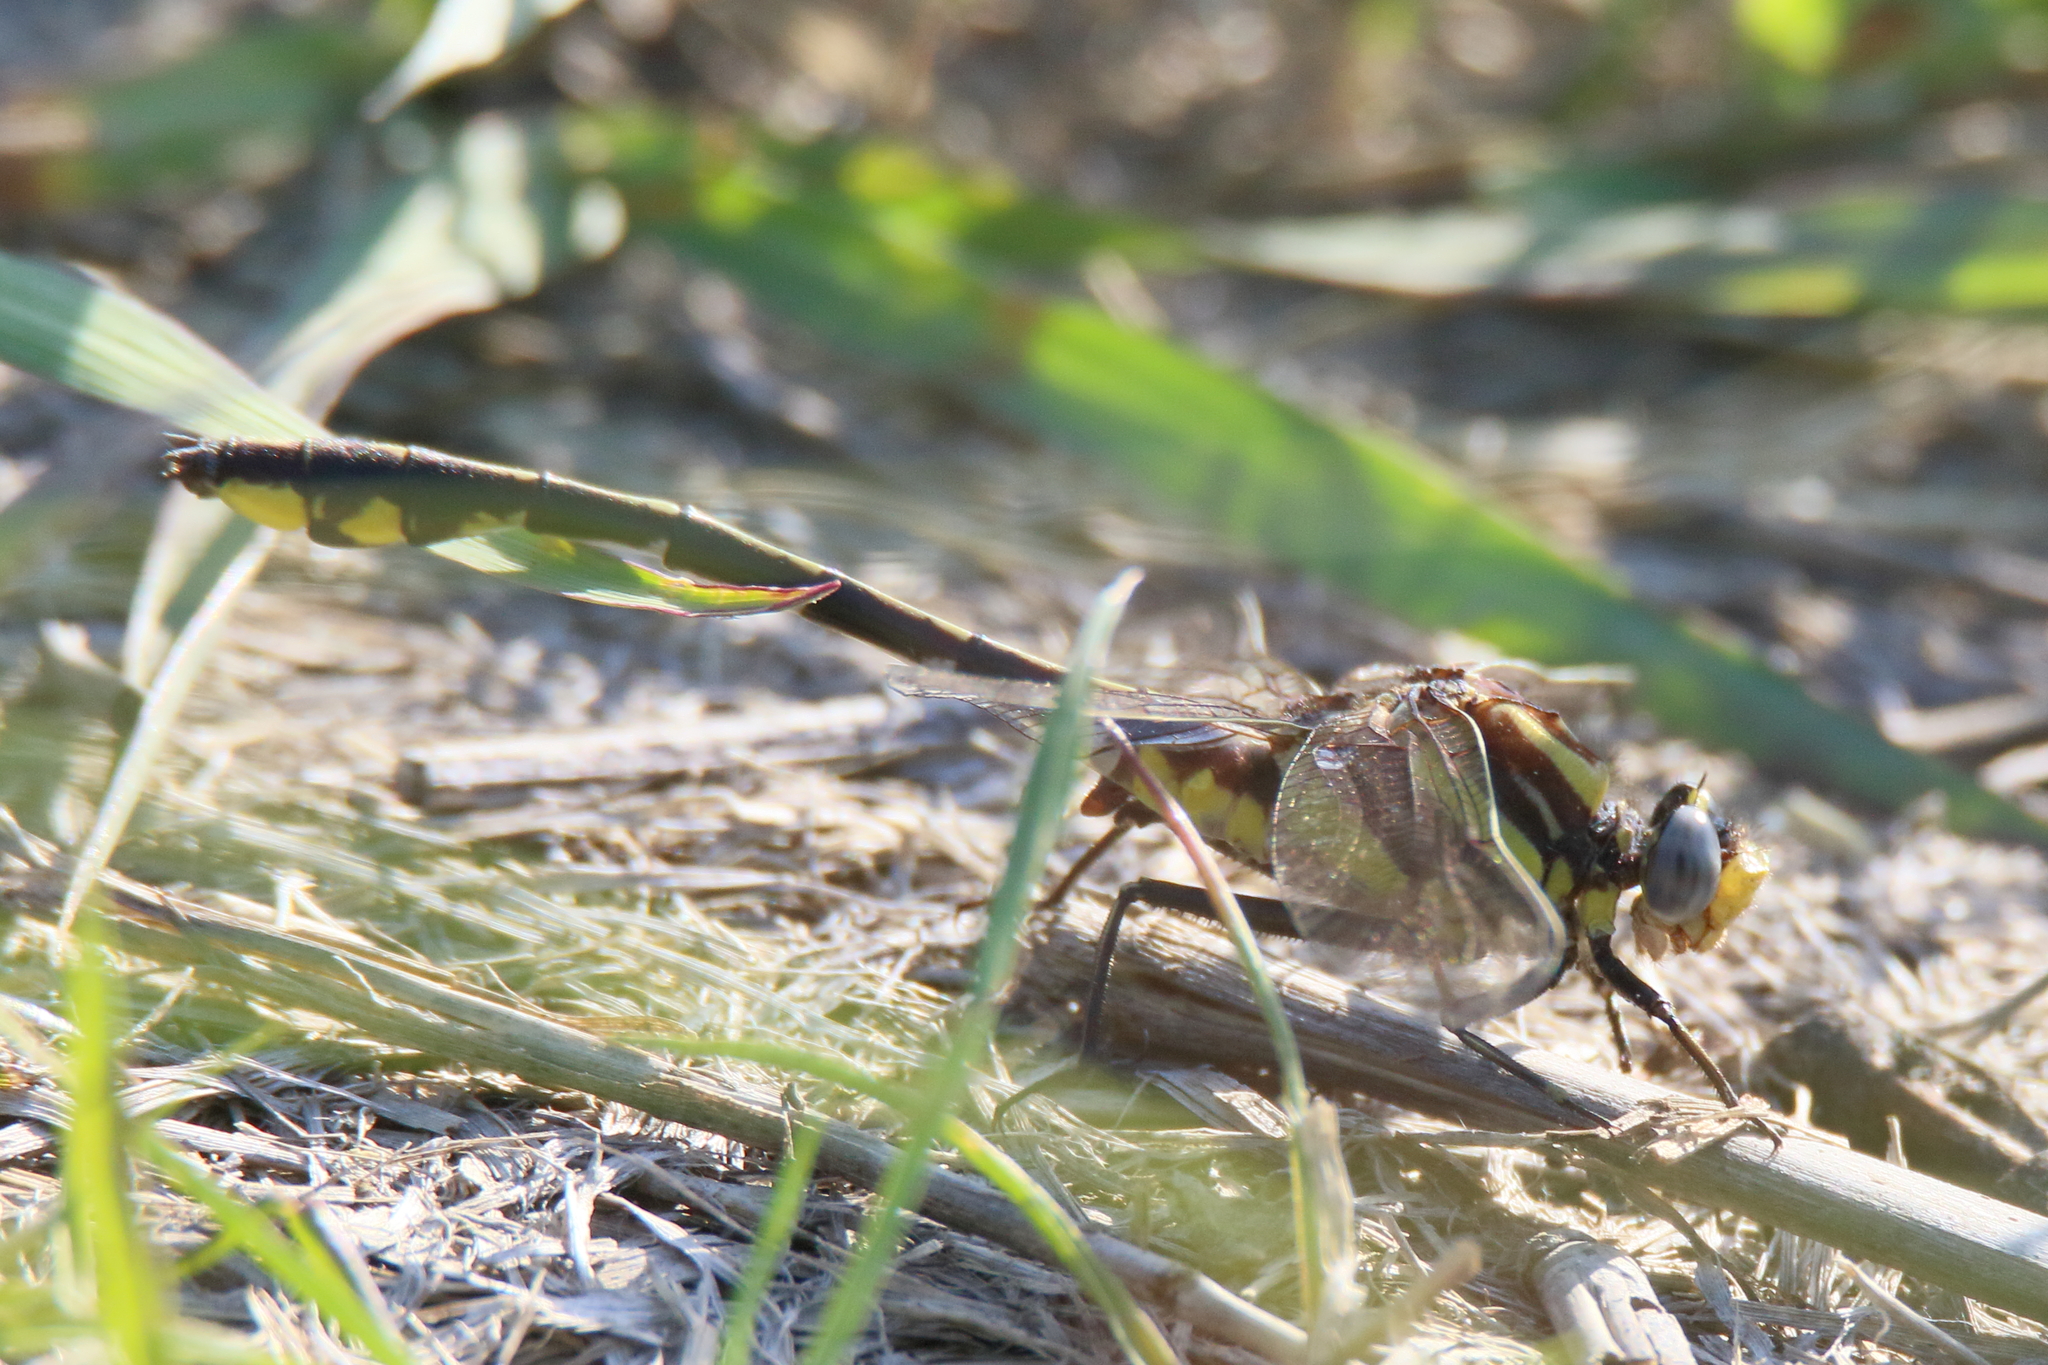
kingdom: Animalia
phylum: Arthropoda
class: Insecta
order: Odonata
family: Gomphidae
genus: Gomphurus
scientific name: Gomphurus externus
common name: Plains clubtail
